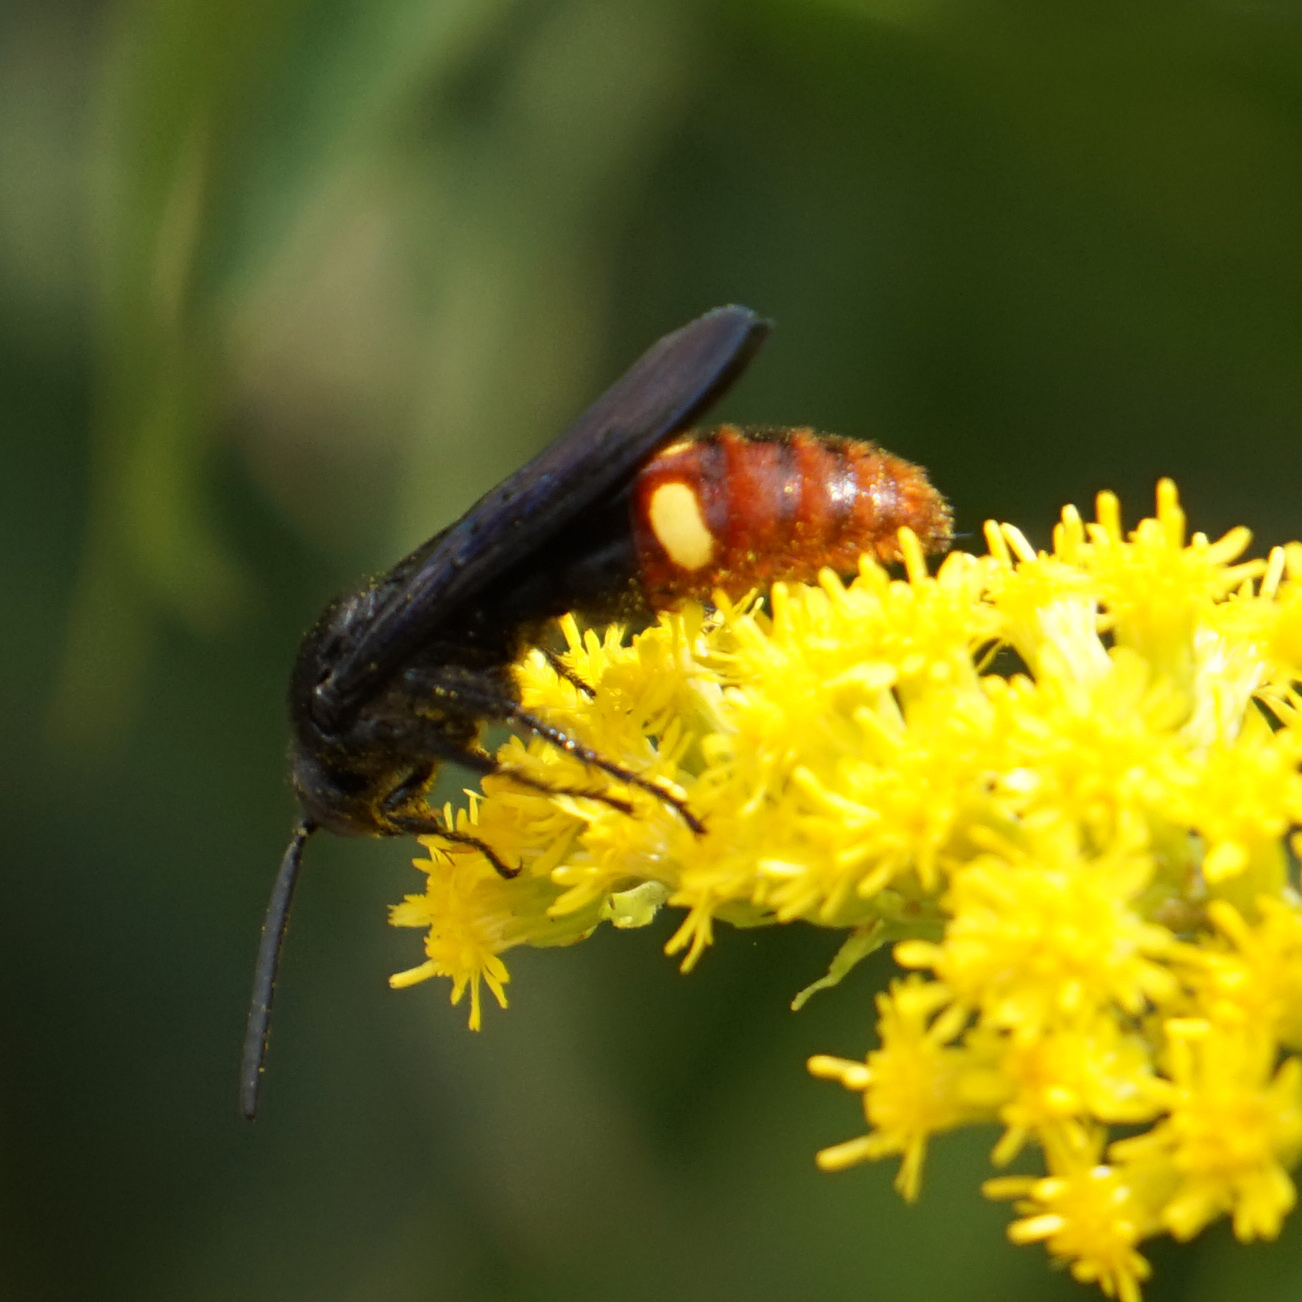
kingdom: Animalia
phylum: Arthropoda
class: Insecta
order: Hymenoptera
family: Scoliidae
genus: Scolia
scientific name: Scolia dubia
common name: Blue-winged scoliid wasp
